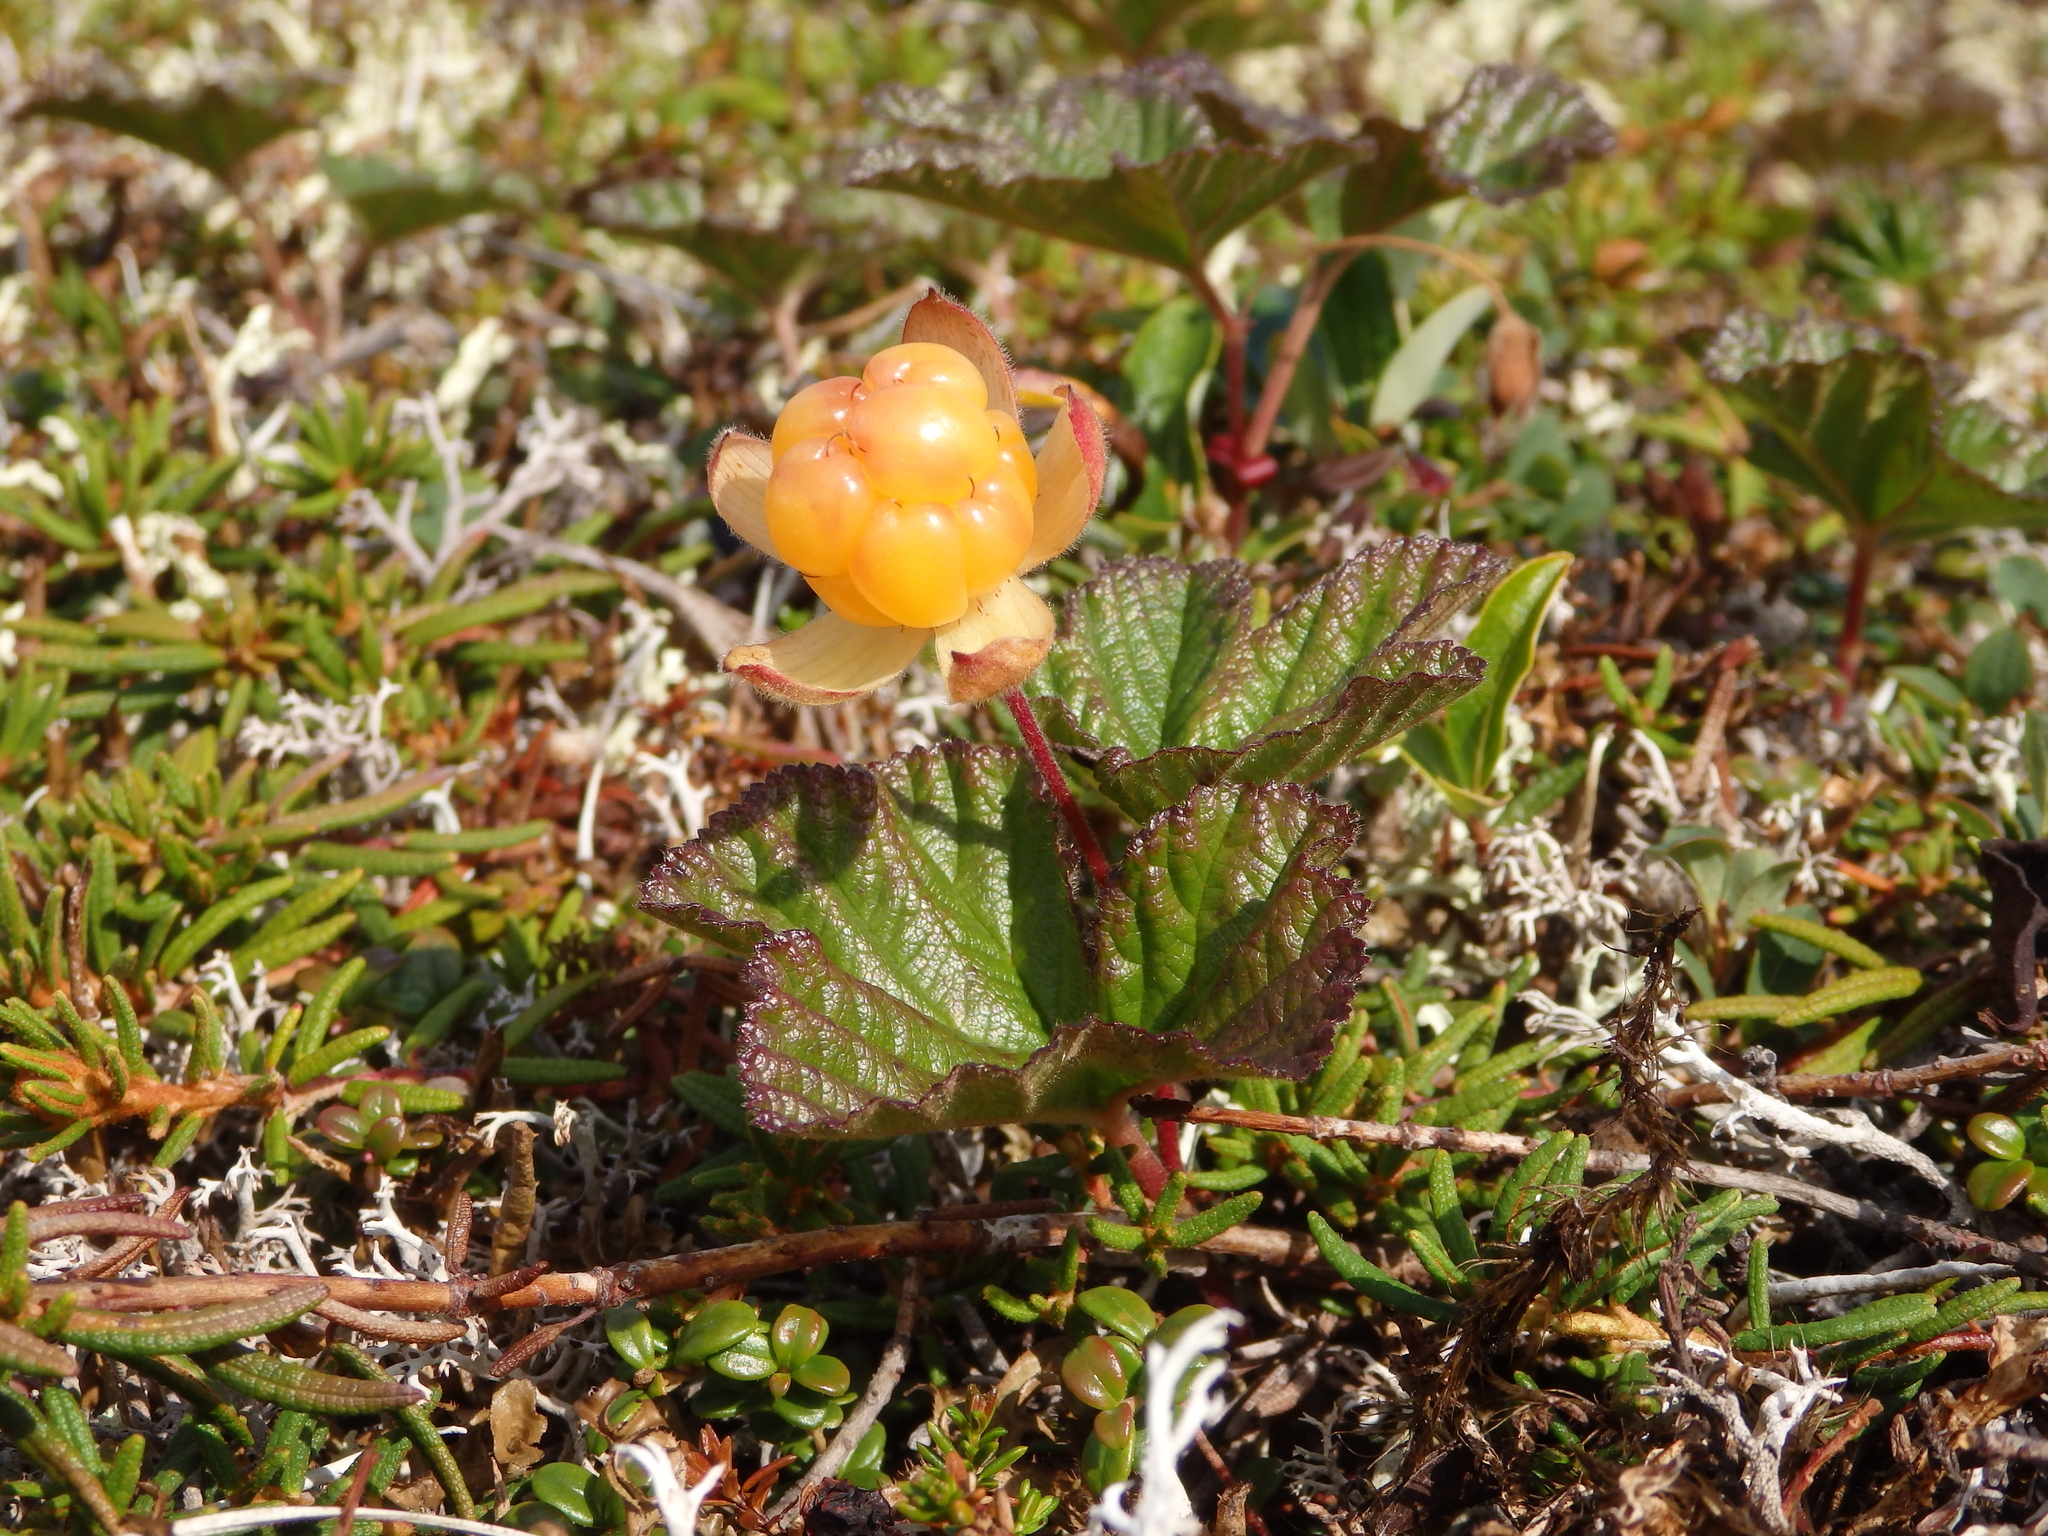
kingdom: Plantae
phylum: Tracheophyta
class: Magnoliopsida
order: Rosales
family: Rosaceae
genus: Rubus
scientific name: Rubus chamaemorus
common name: Cloudberry
